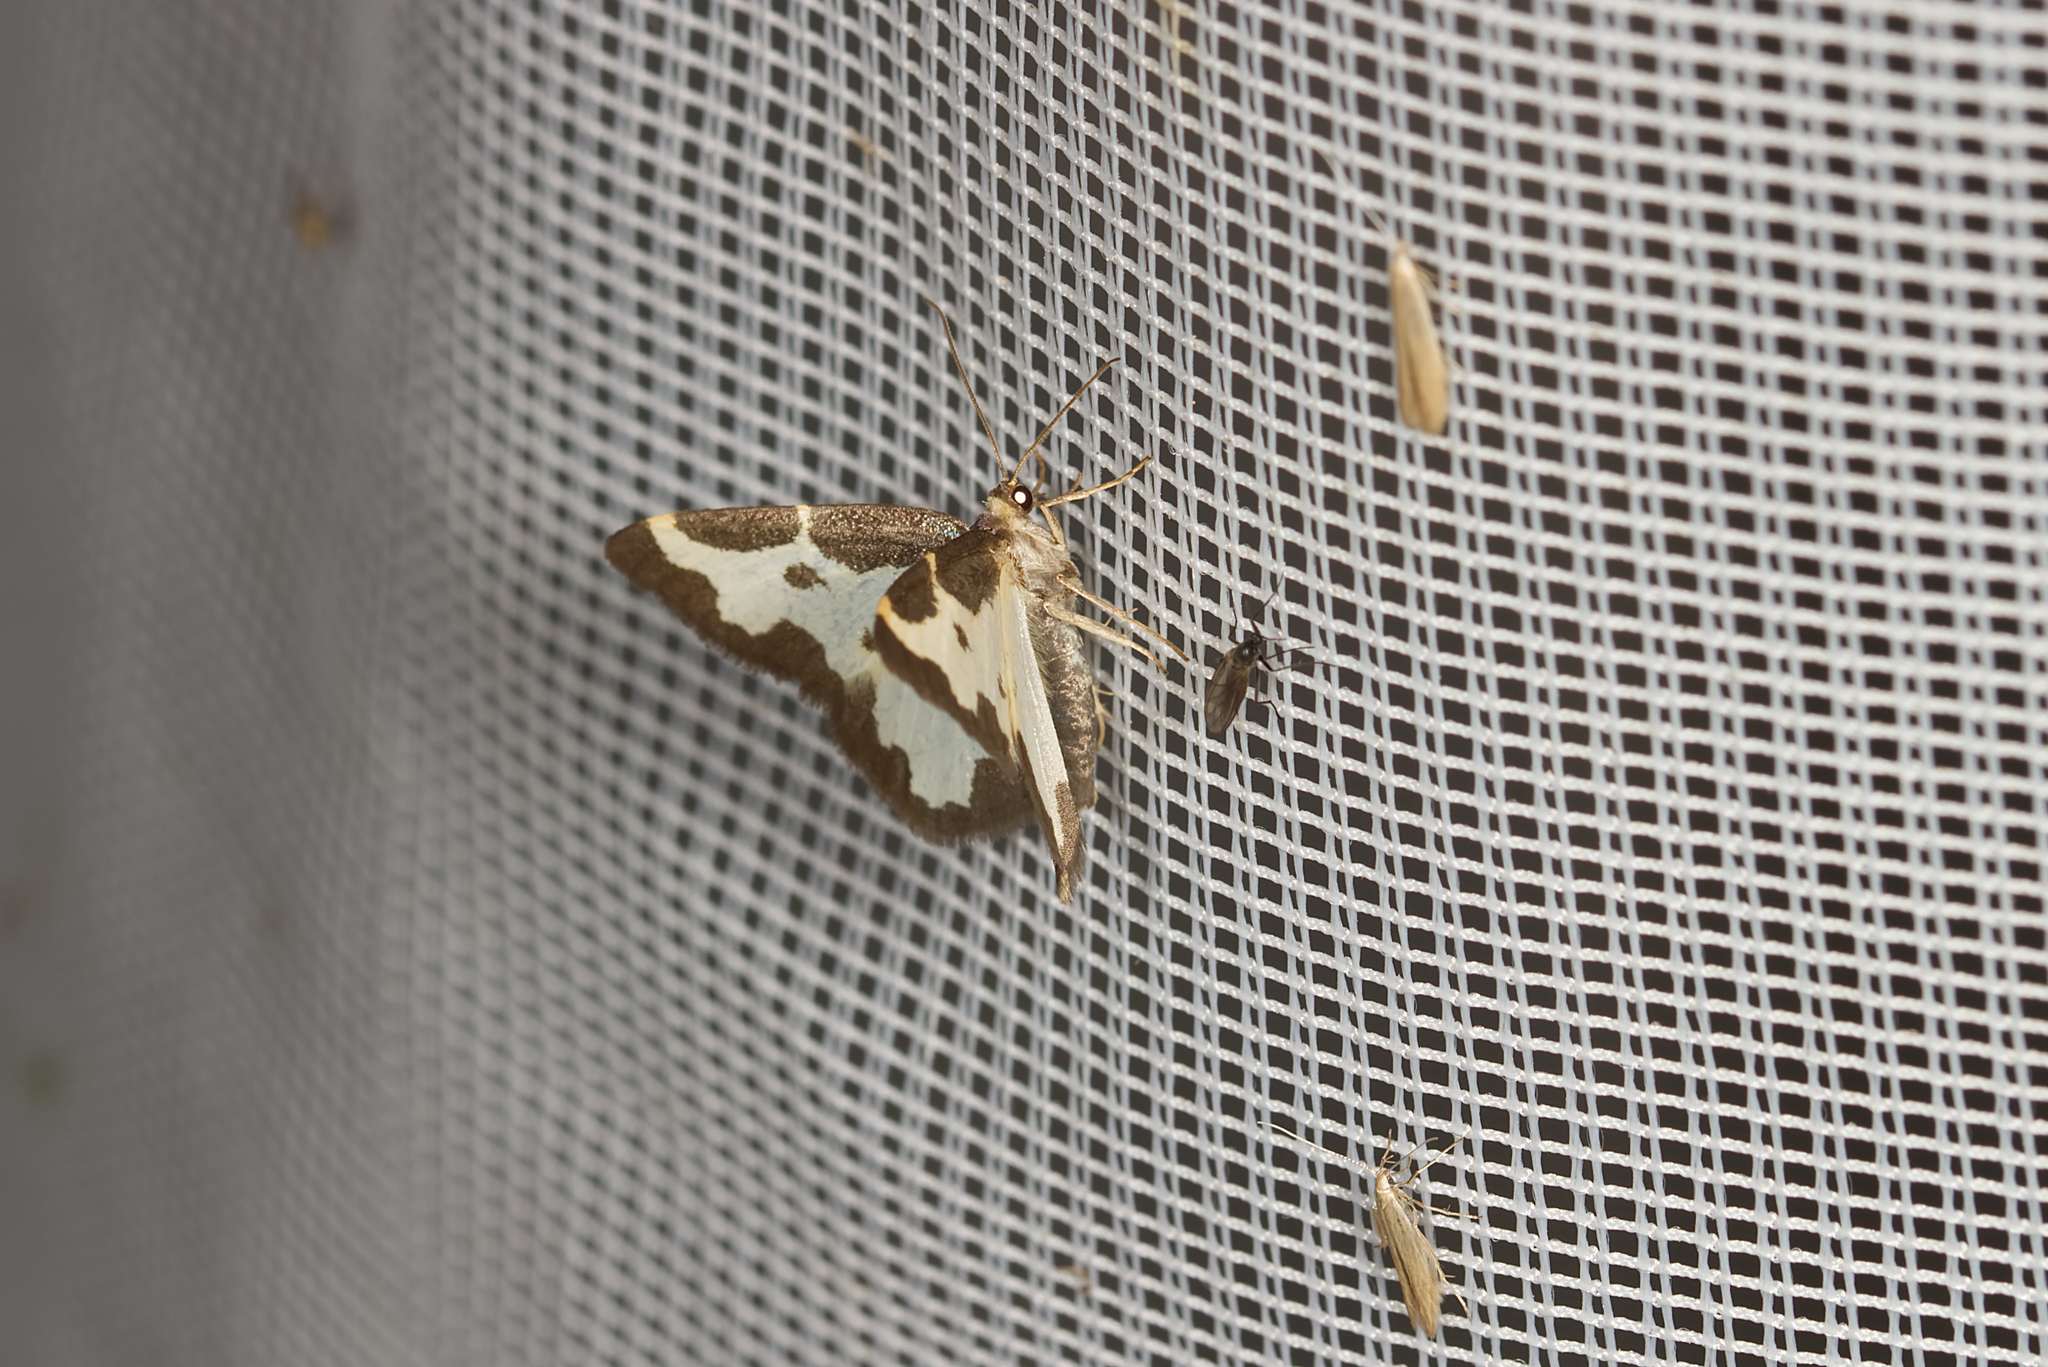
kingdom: Animalia
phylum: Arthropoda
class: Insecta
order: Lepidoptera
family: Geometridae
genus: Lomaspilis
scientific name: Lomaspilis marginata
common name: Clouded border
